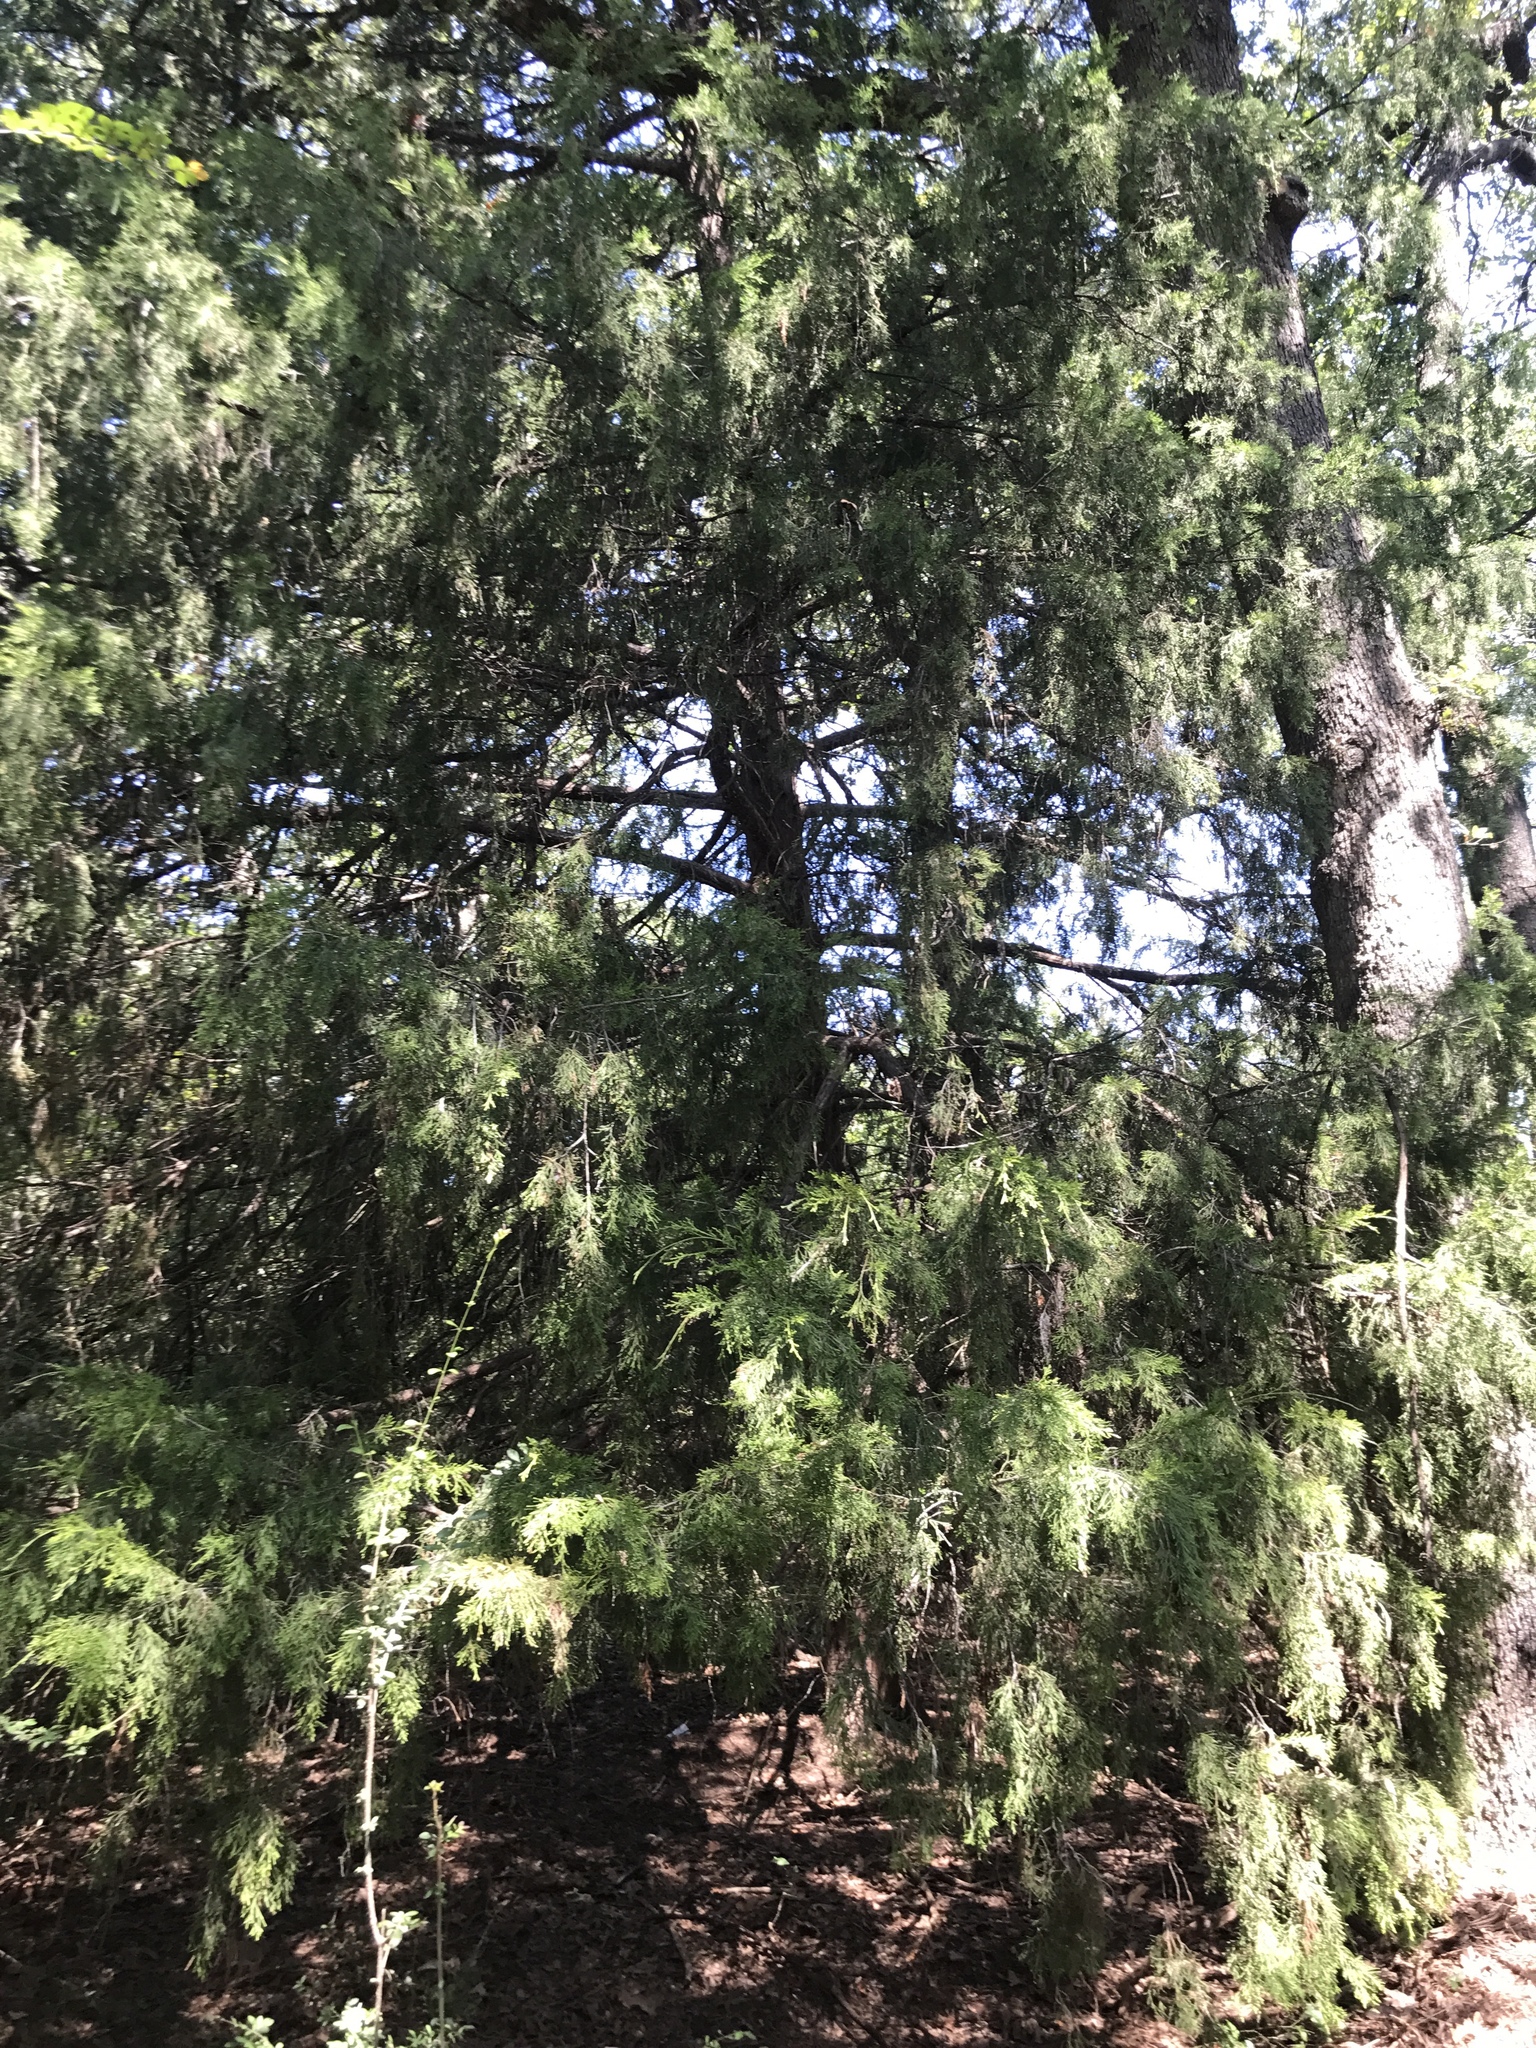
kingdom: Plantae
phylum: Tracheophyta
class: Pinopsida
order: Pinales
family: Cupressaceae
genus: Juniperus
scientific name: Juniperus virginiana
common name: Red juniper
